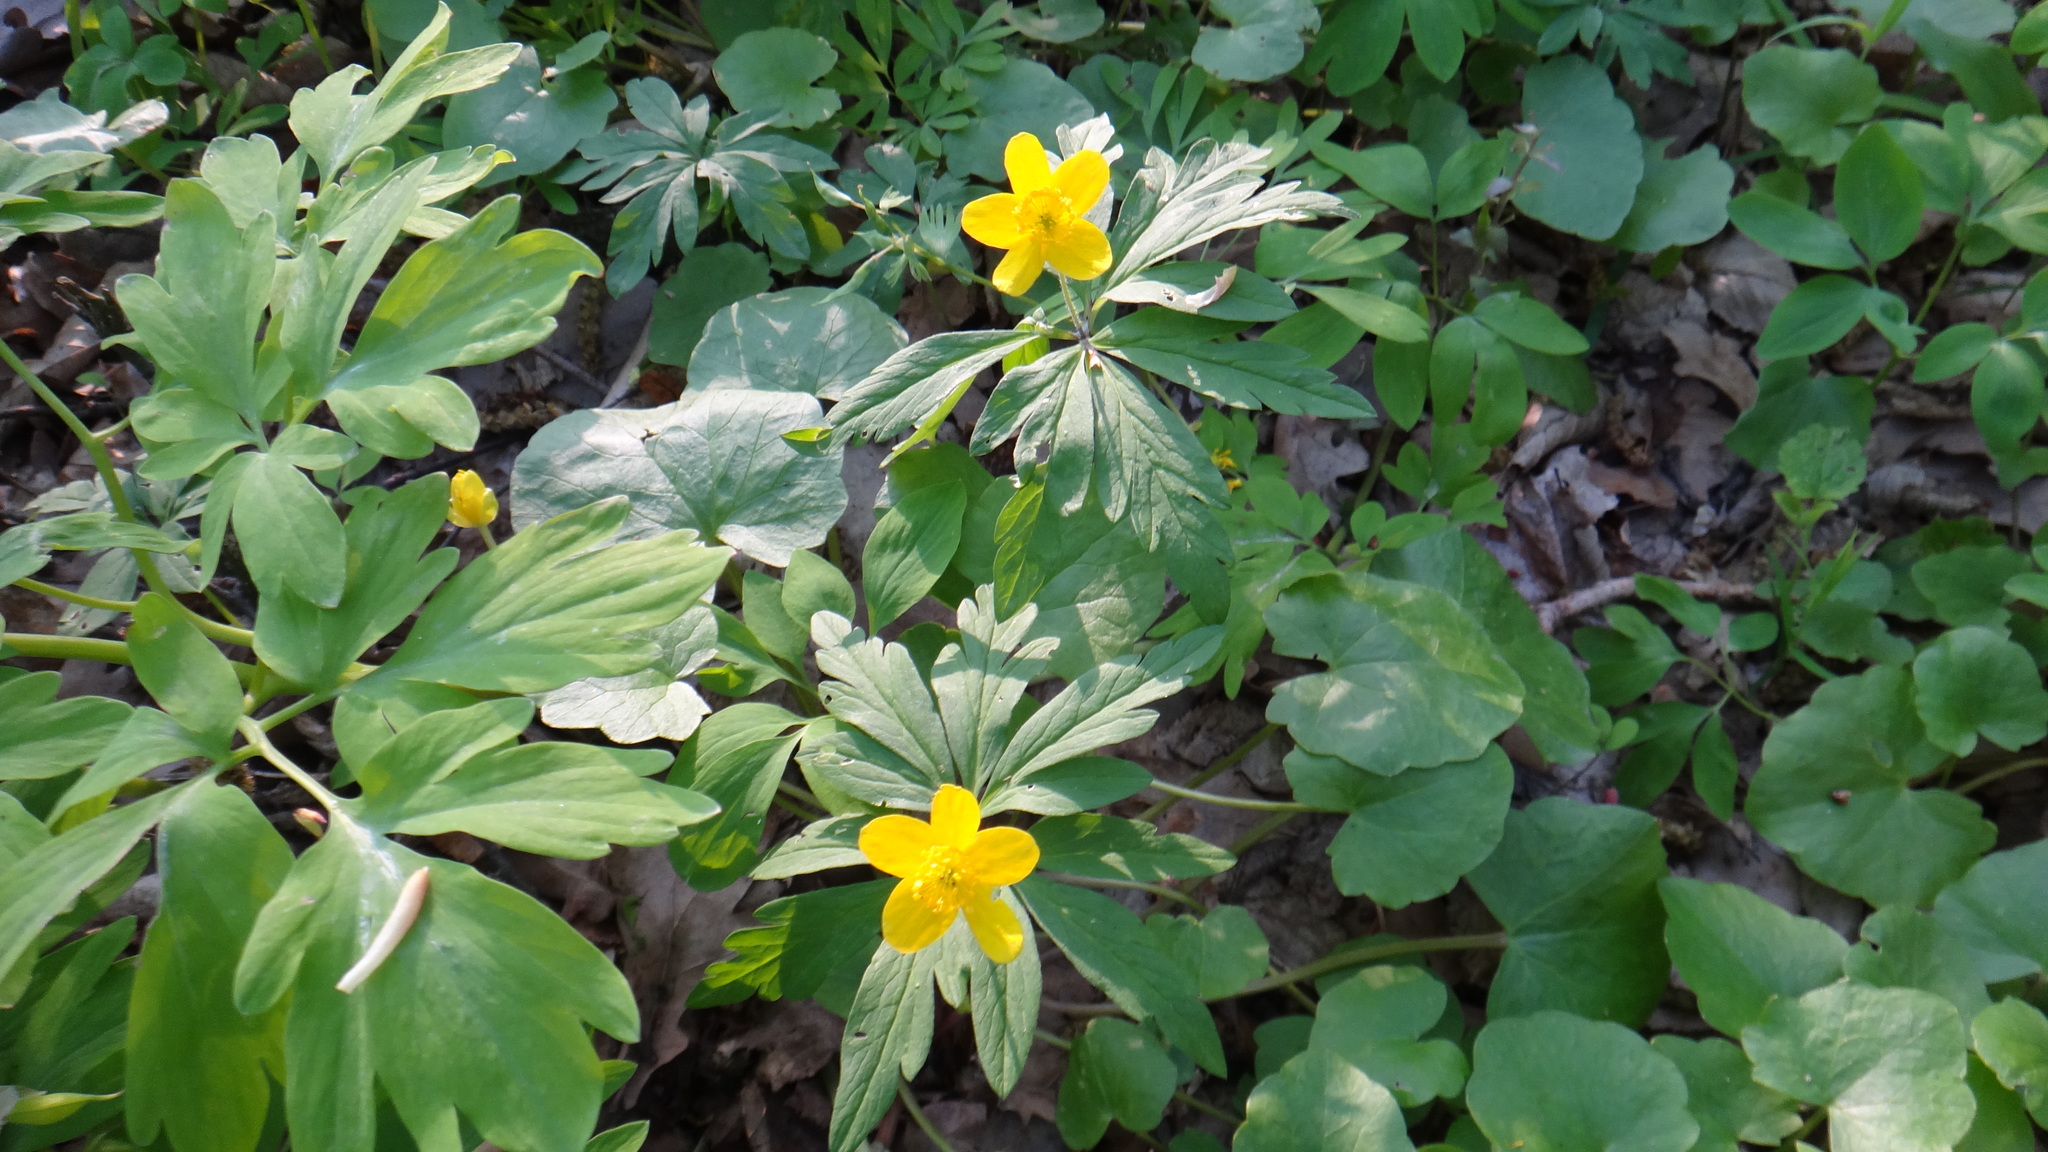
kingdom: Plantae
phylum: Tracheophyta
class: Magnoliopsida
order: Ranunculales
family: Ranunculaceae
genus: Anemone
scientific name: Anemone ranunculoides
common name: Yellow anemone
